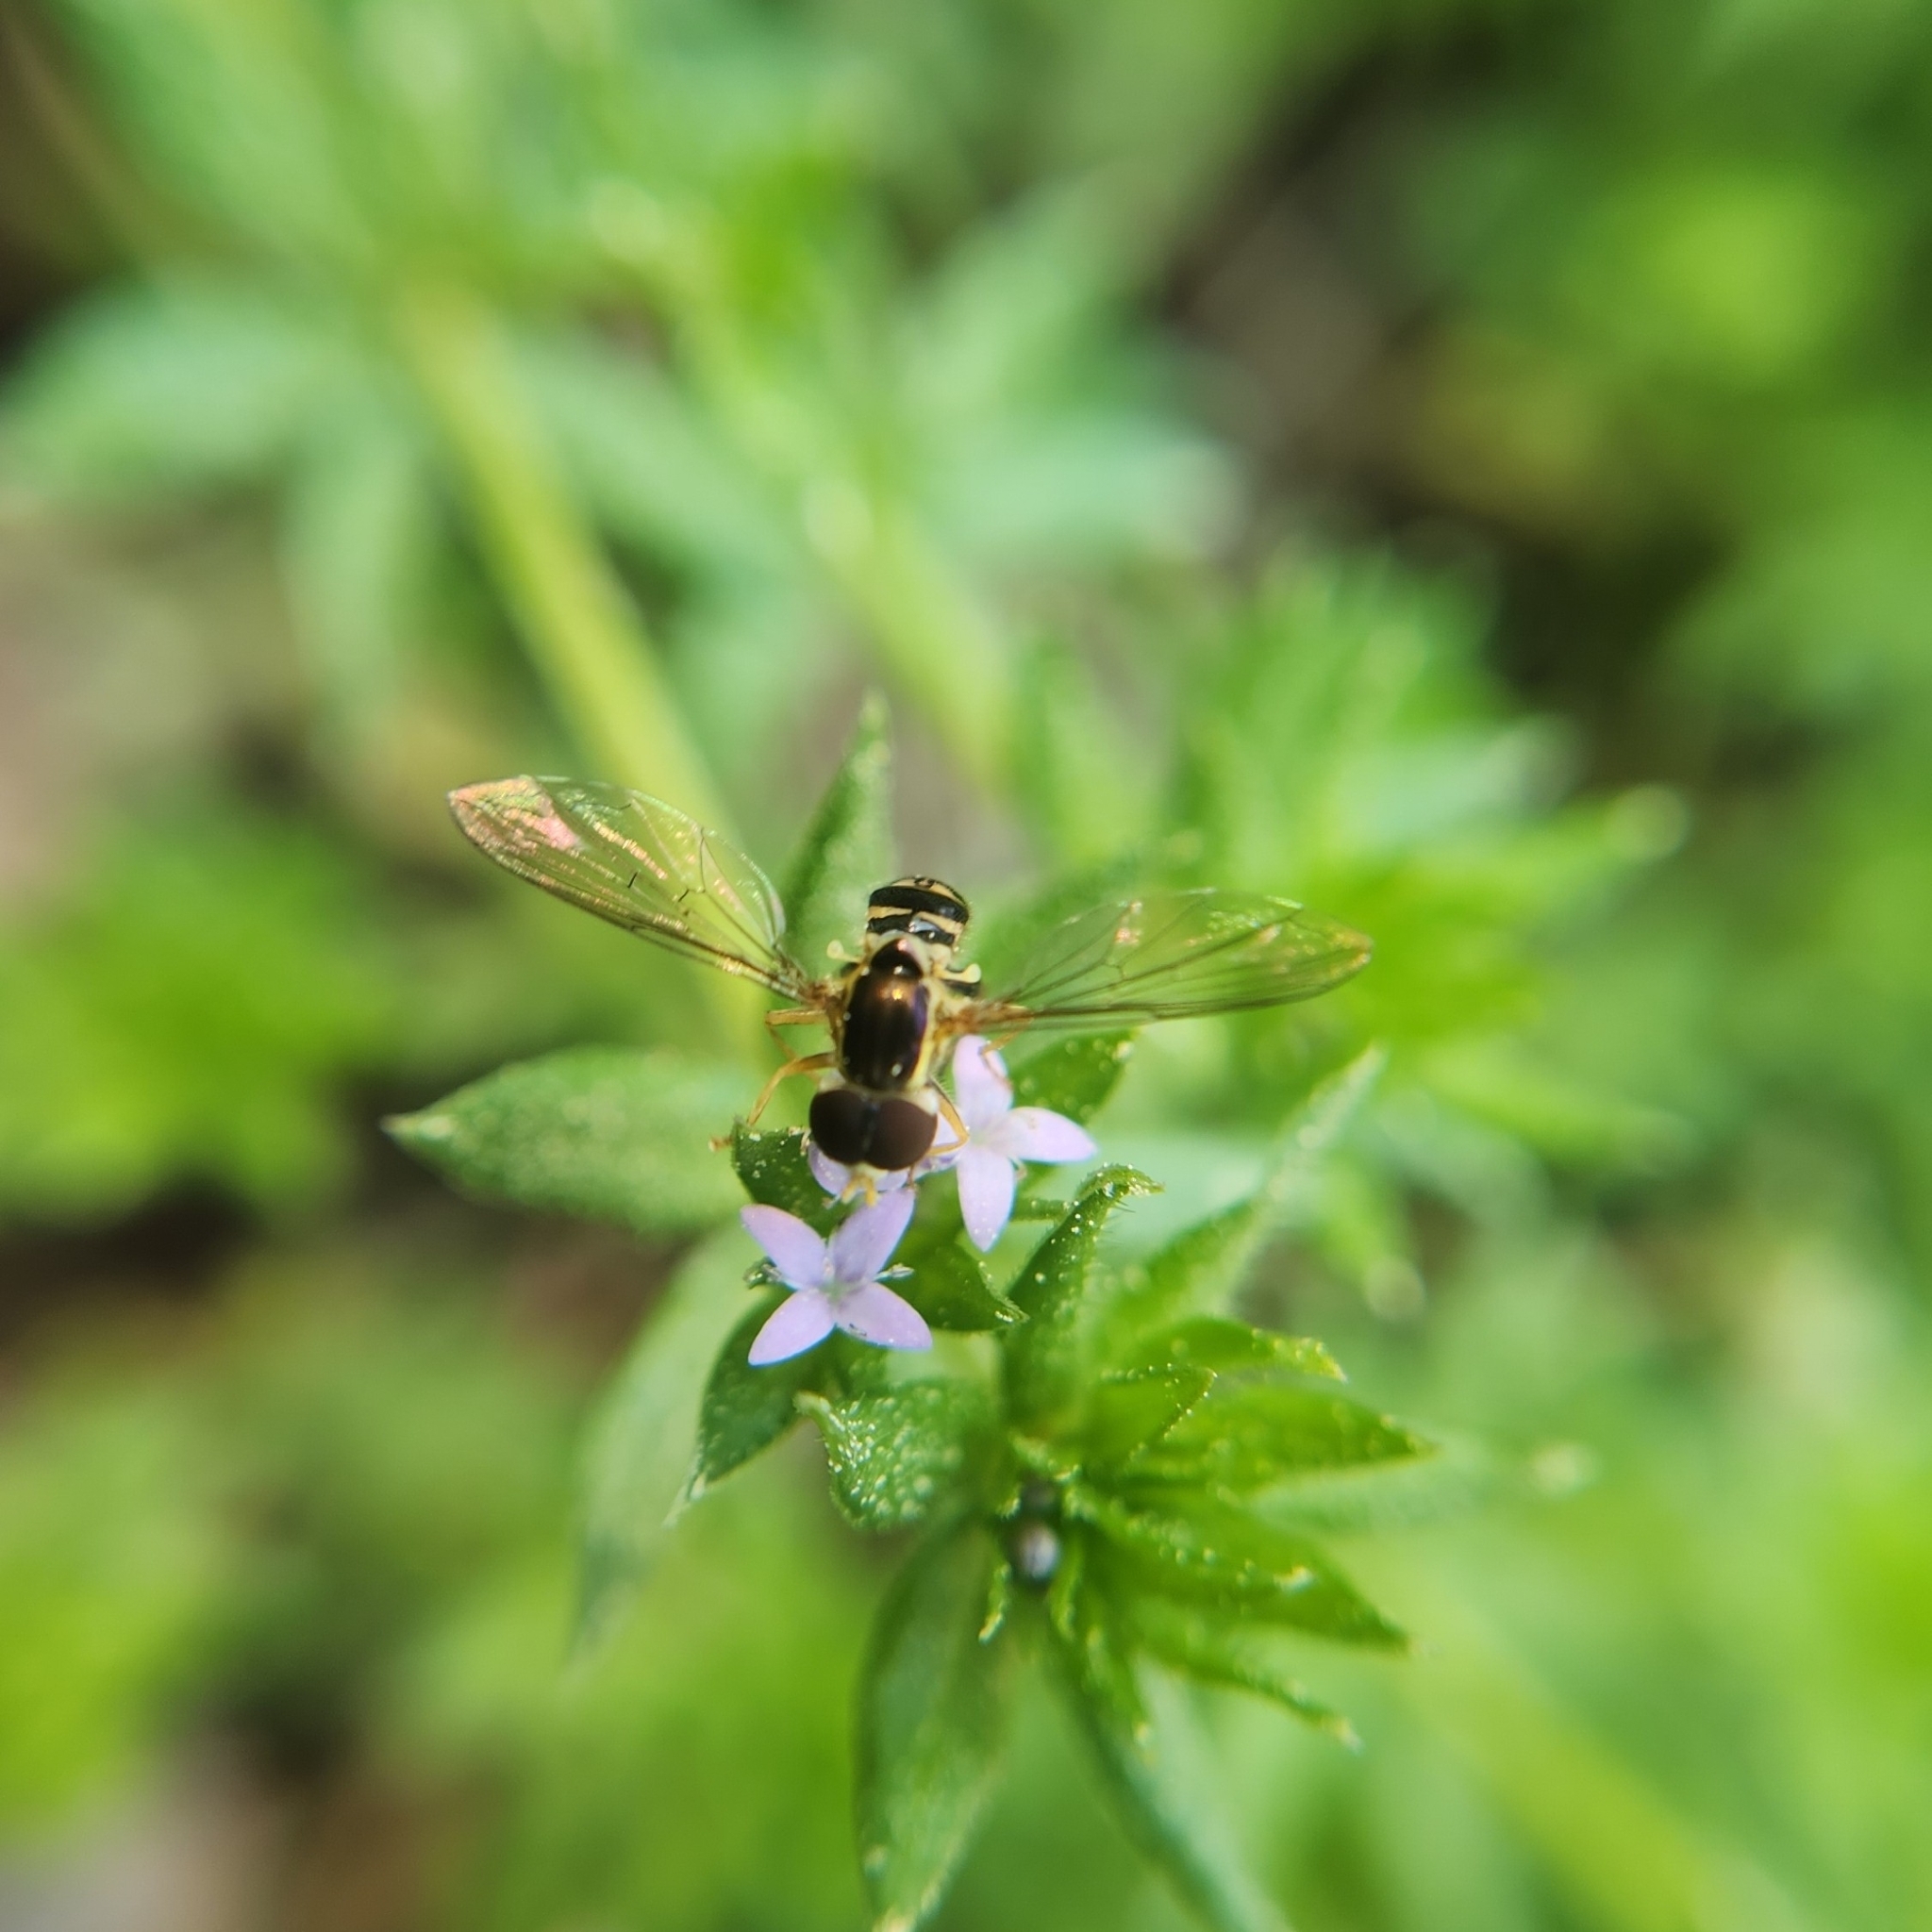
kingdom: Animalia
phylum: Arthropoda
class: Insecta
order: Diptera
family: Syrphidae
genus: Toxomerus
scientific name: Toxomerus geminatus
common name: Eastern calligrapher
